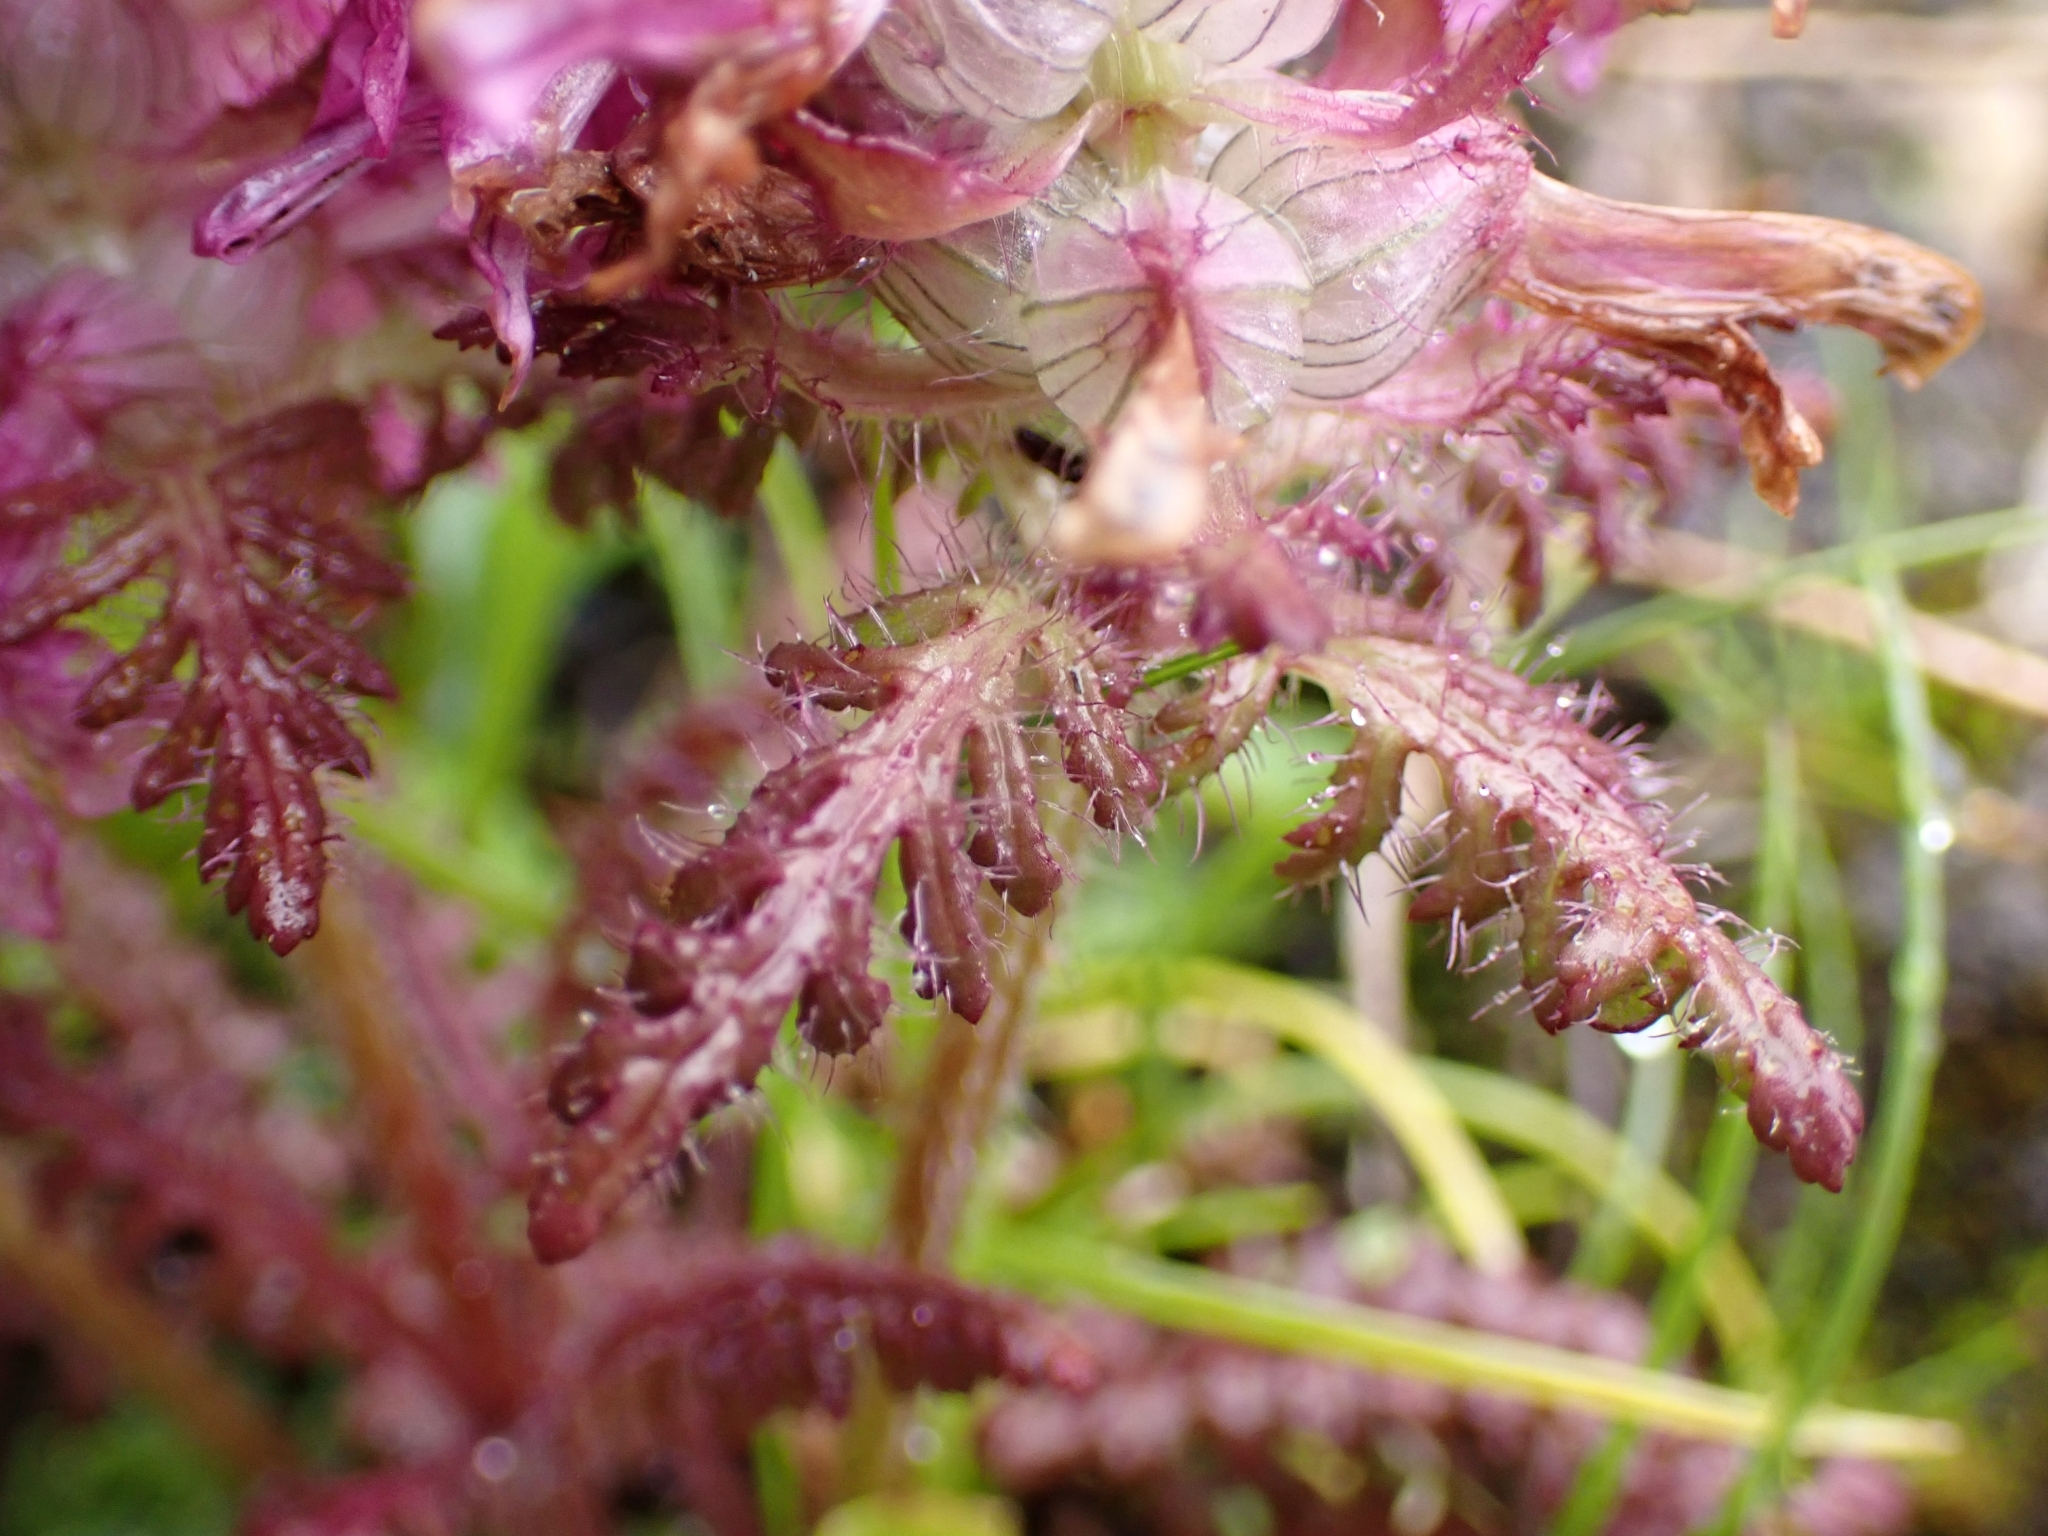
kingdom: Plantae
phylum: Tracheophyta
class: Magnoliopsida
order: Lamiales
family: Orobanchaceae
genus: Pedicularis
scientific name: Pedicularis verticillata
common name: Whorled lousewort
